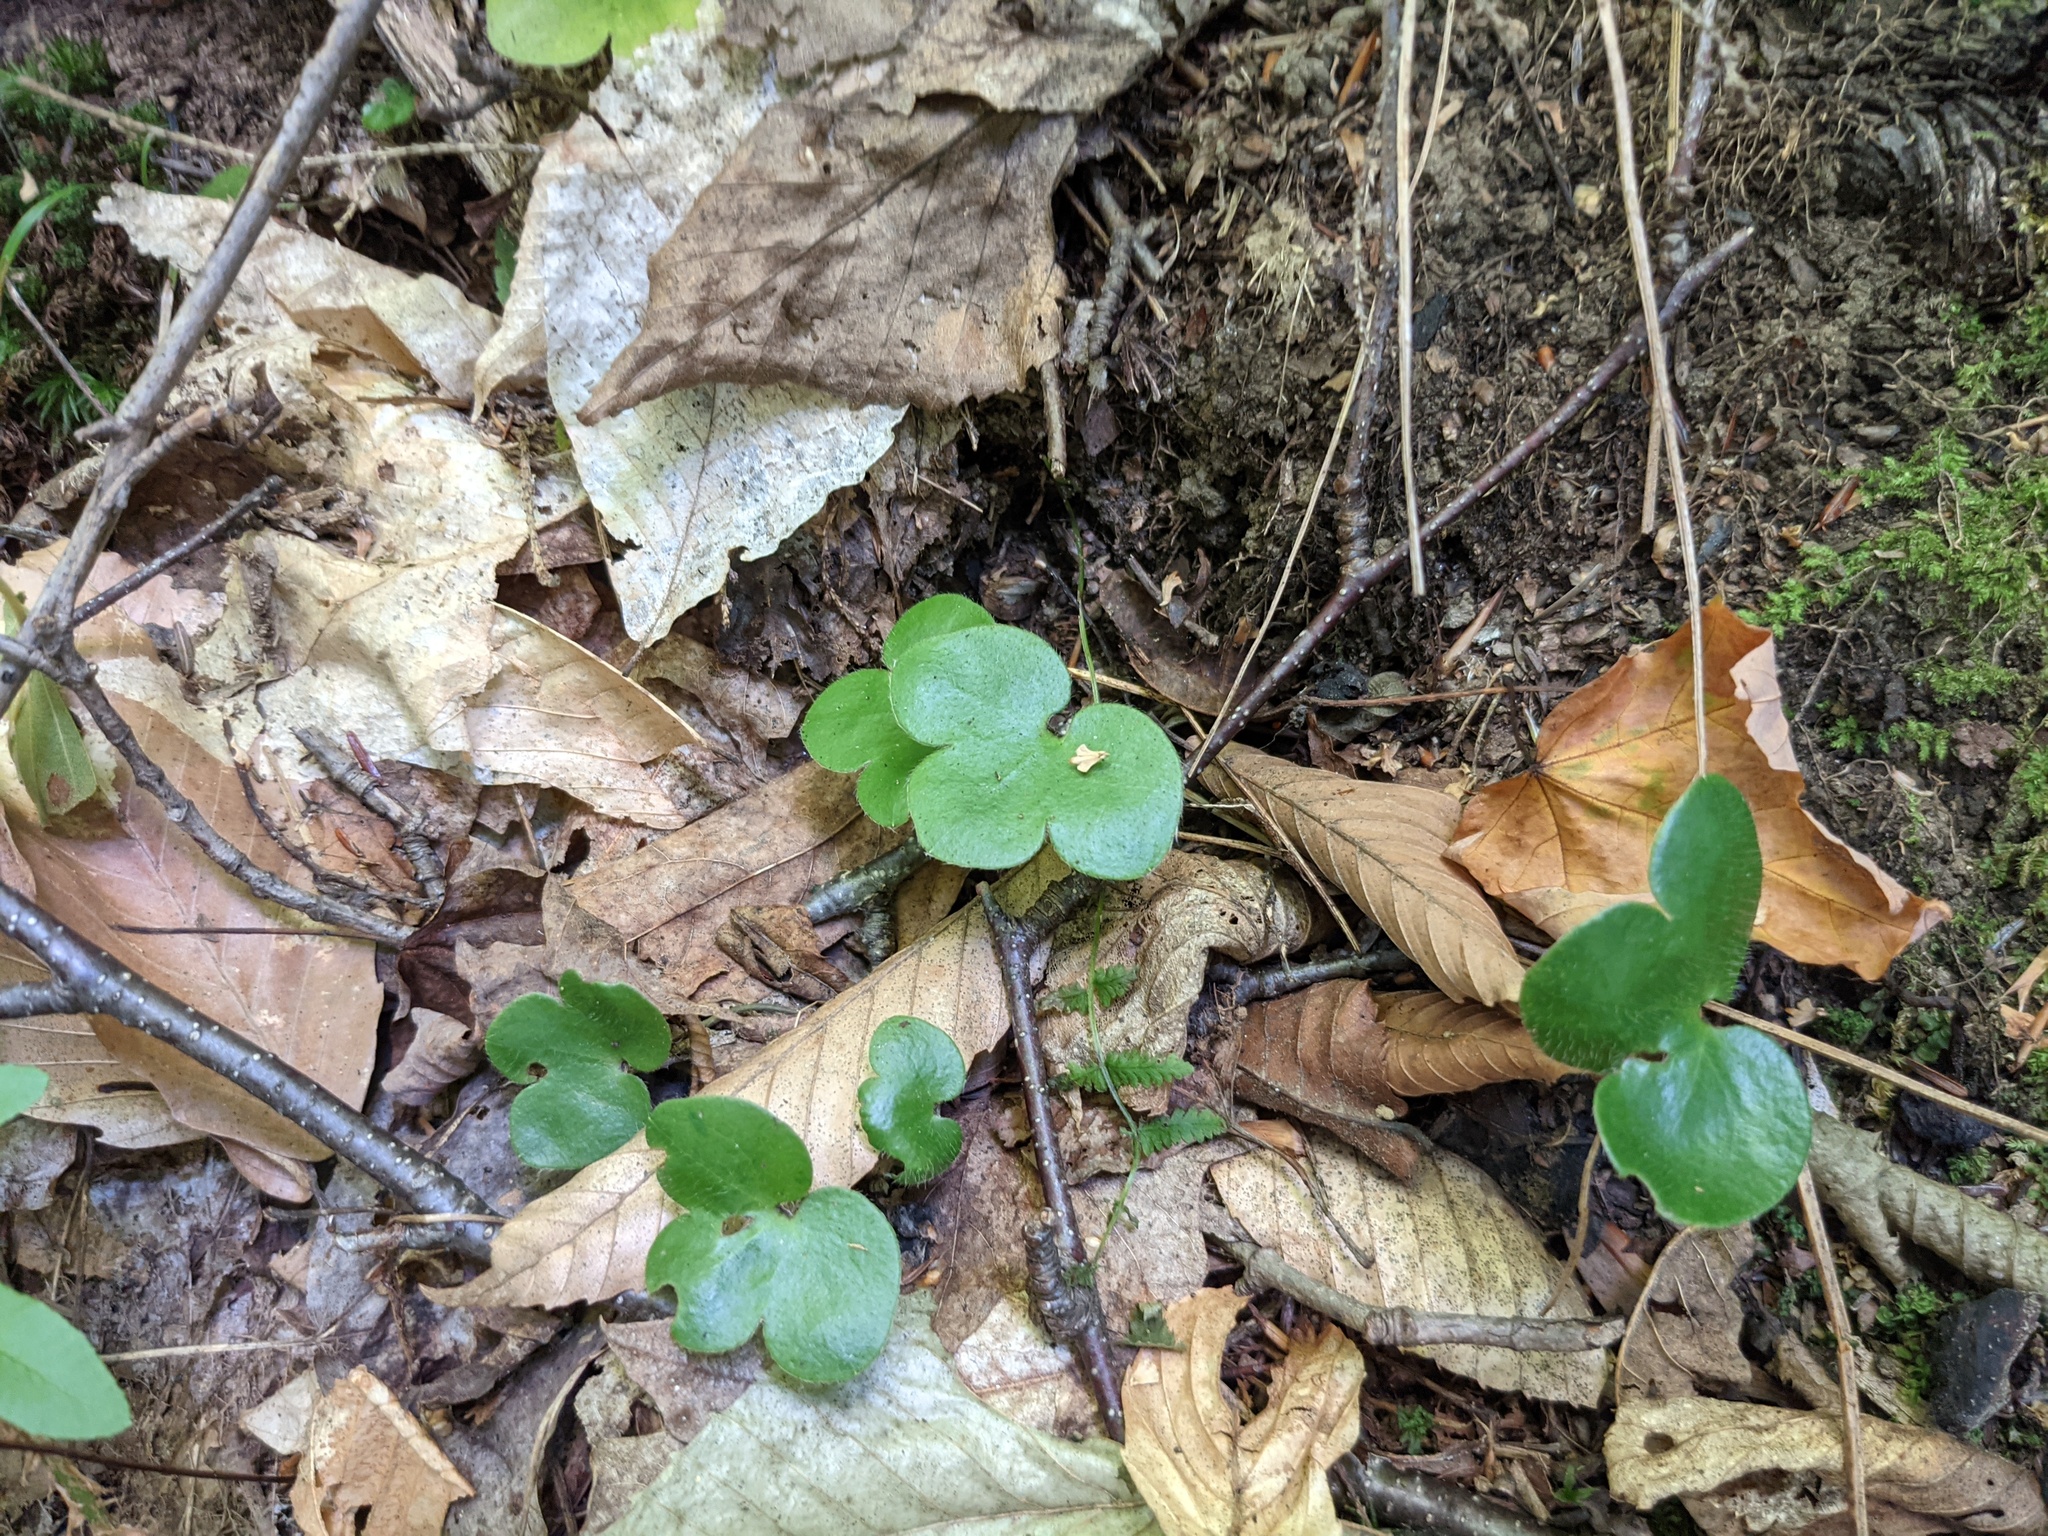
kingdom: Plantae
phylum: Tracheophyta
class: Magnoliopsida
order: Ranunculales
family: Ranunculaceae
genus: Hepatica
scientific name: Hepatica americana
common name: American hepatica
